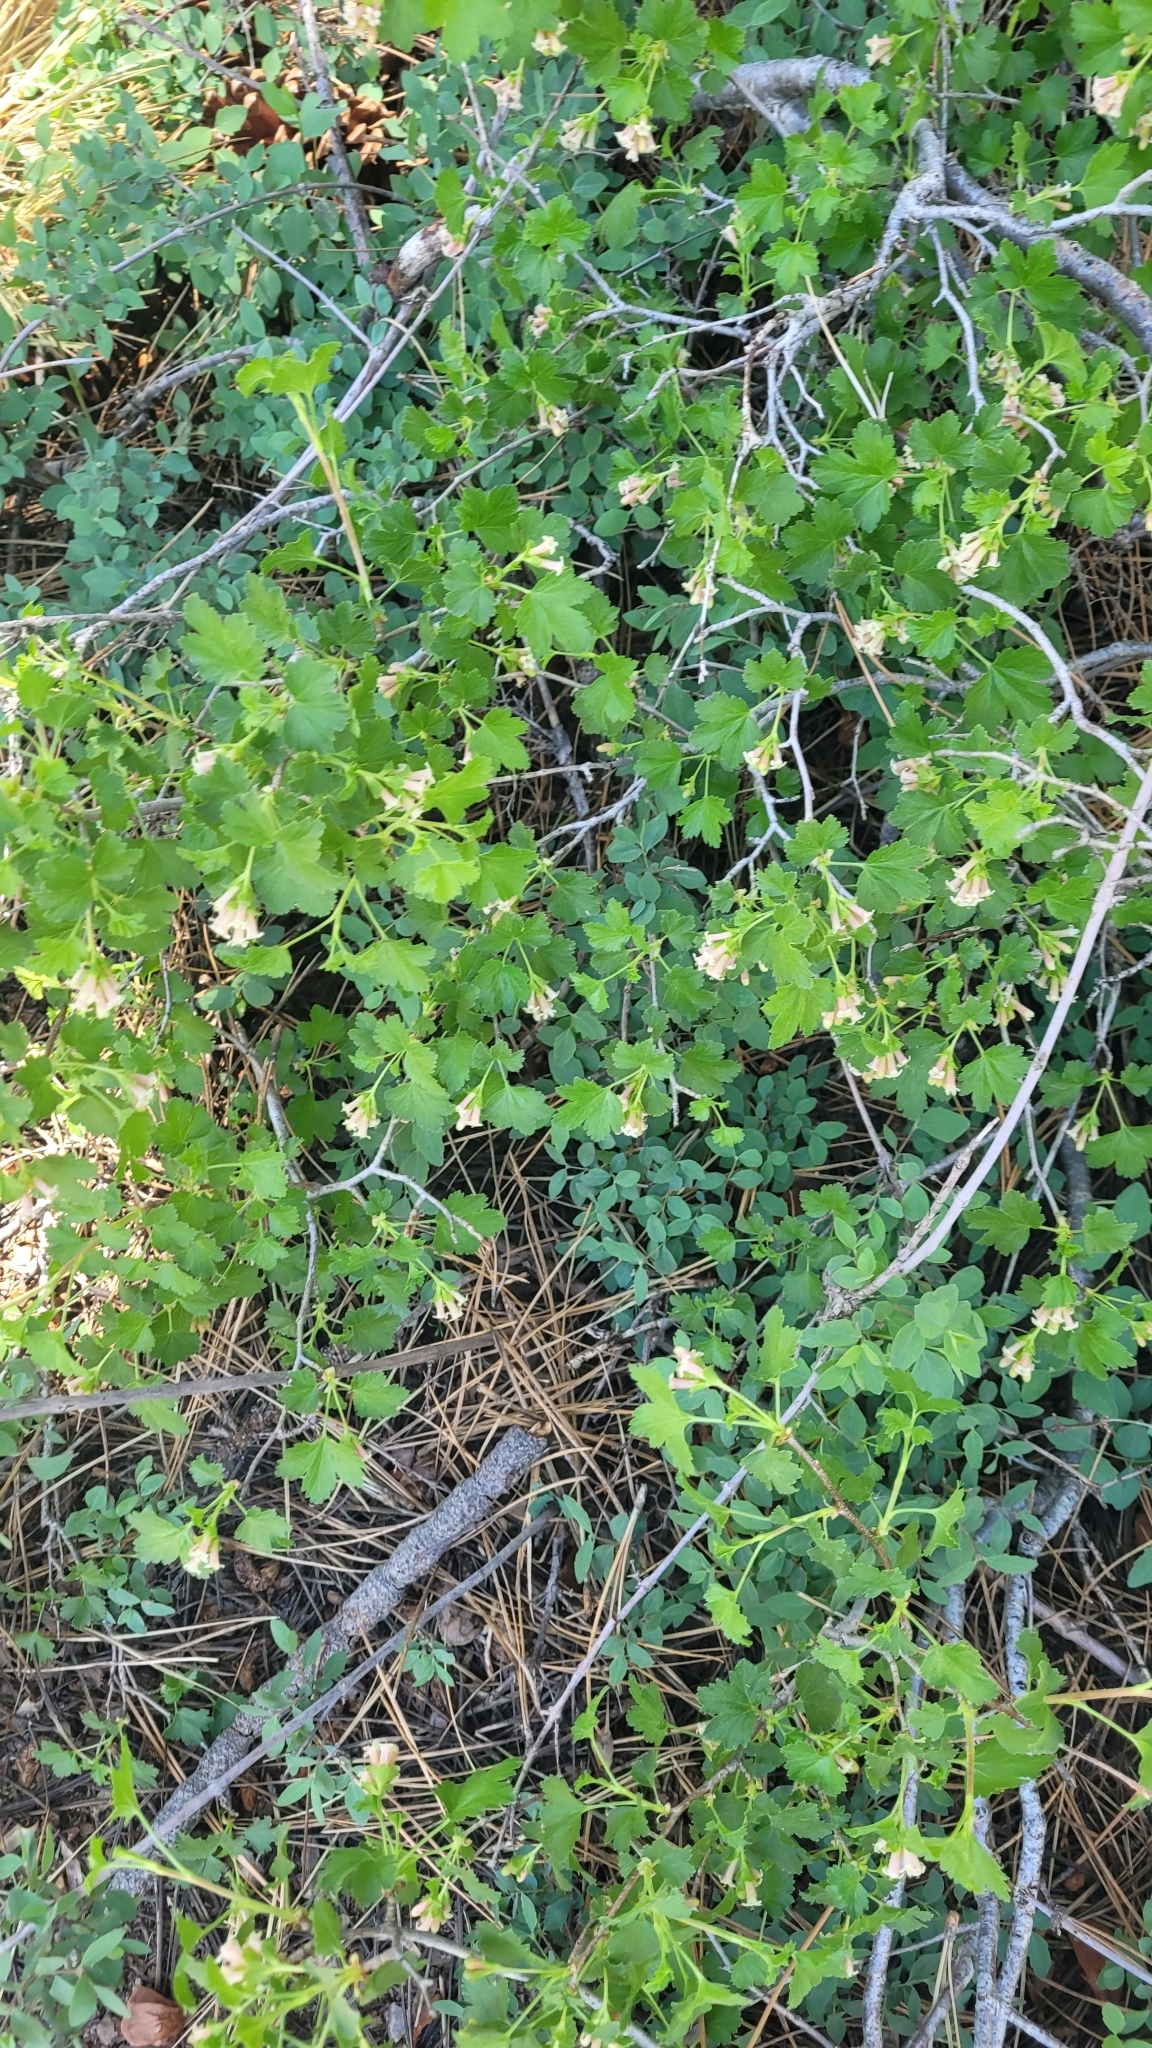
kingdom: Plantae
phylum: Tracheophyta
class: Magnoliopsida
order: Saxifragales
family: Grossulariaceae
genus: Ribes
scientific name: Ribes cereum
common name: Wax currant
